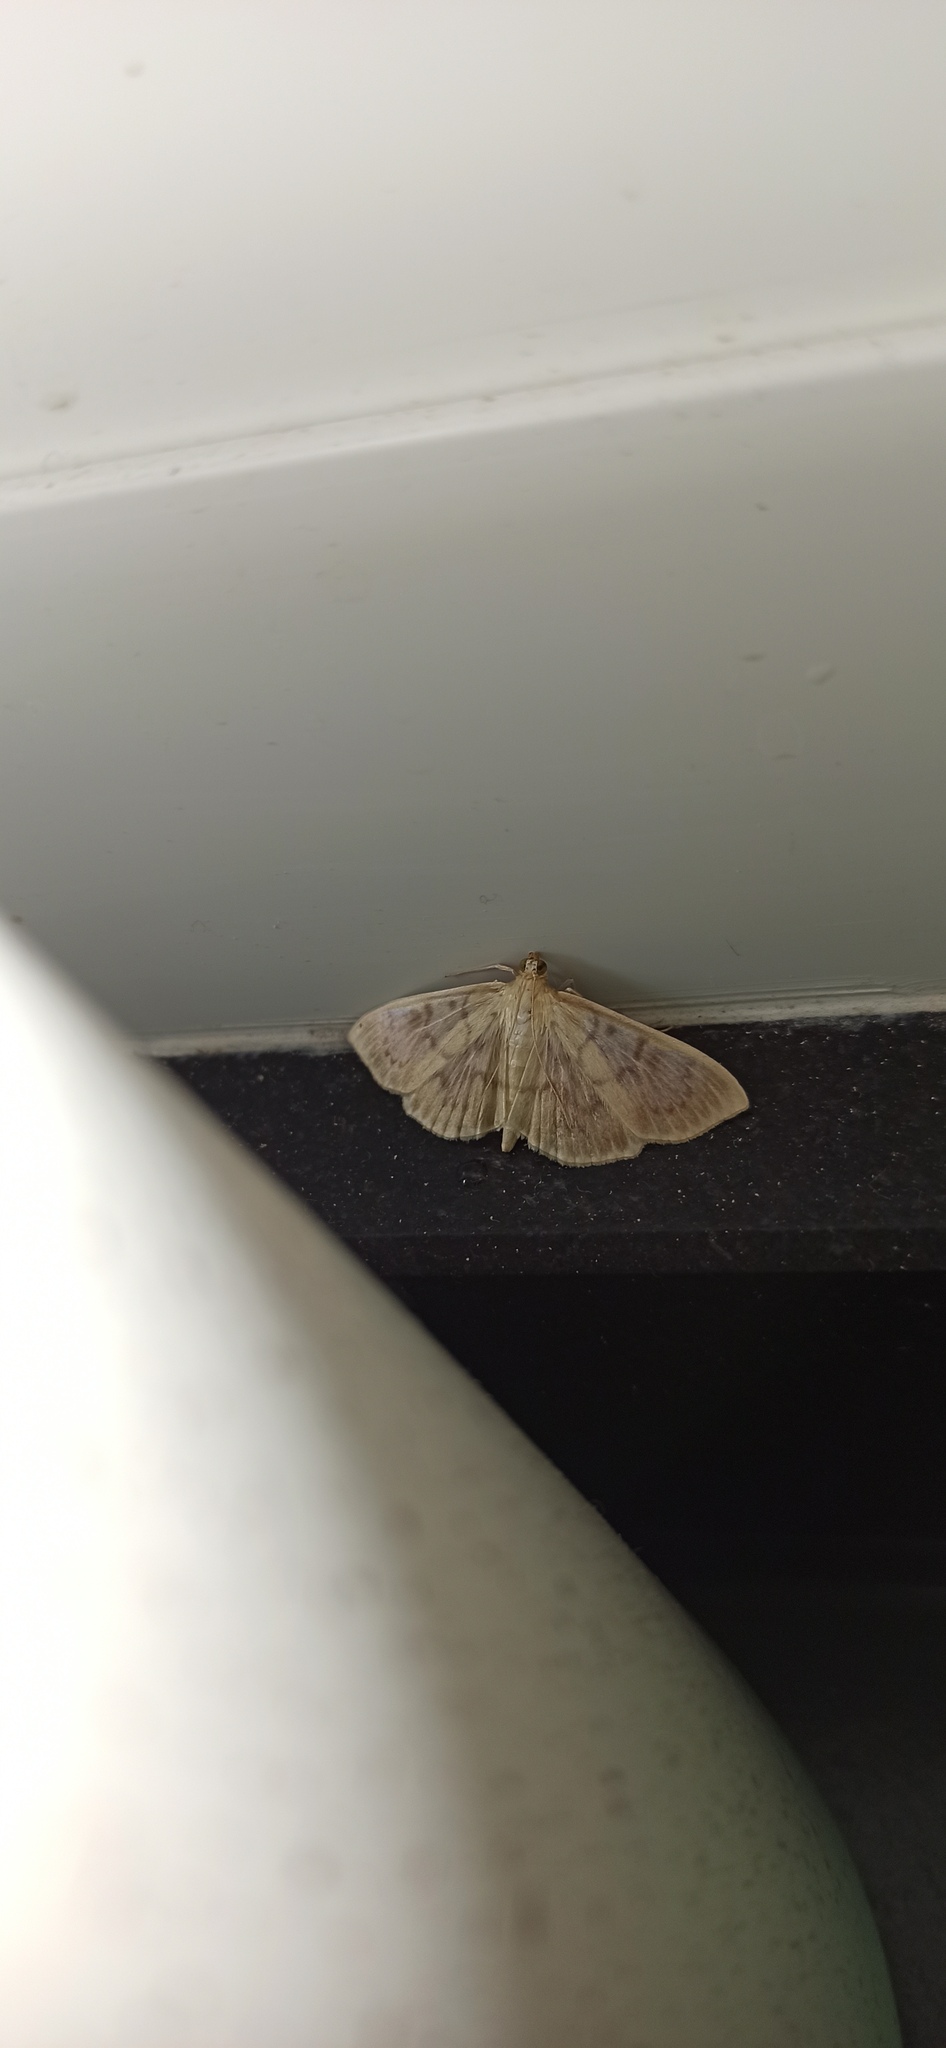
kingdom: Animalia
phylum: Arthropoda
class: Insecta
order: Lepidoptera
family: Crambidae
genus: Patania
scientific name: Patania ruralis
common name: Mother of pearl
